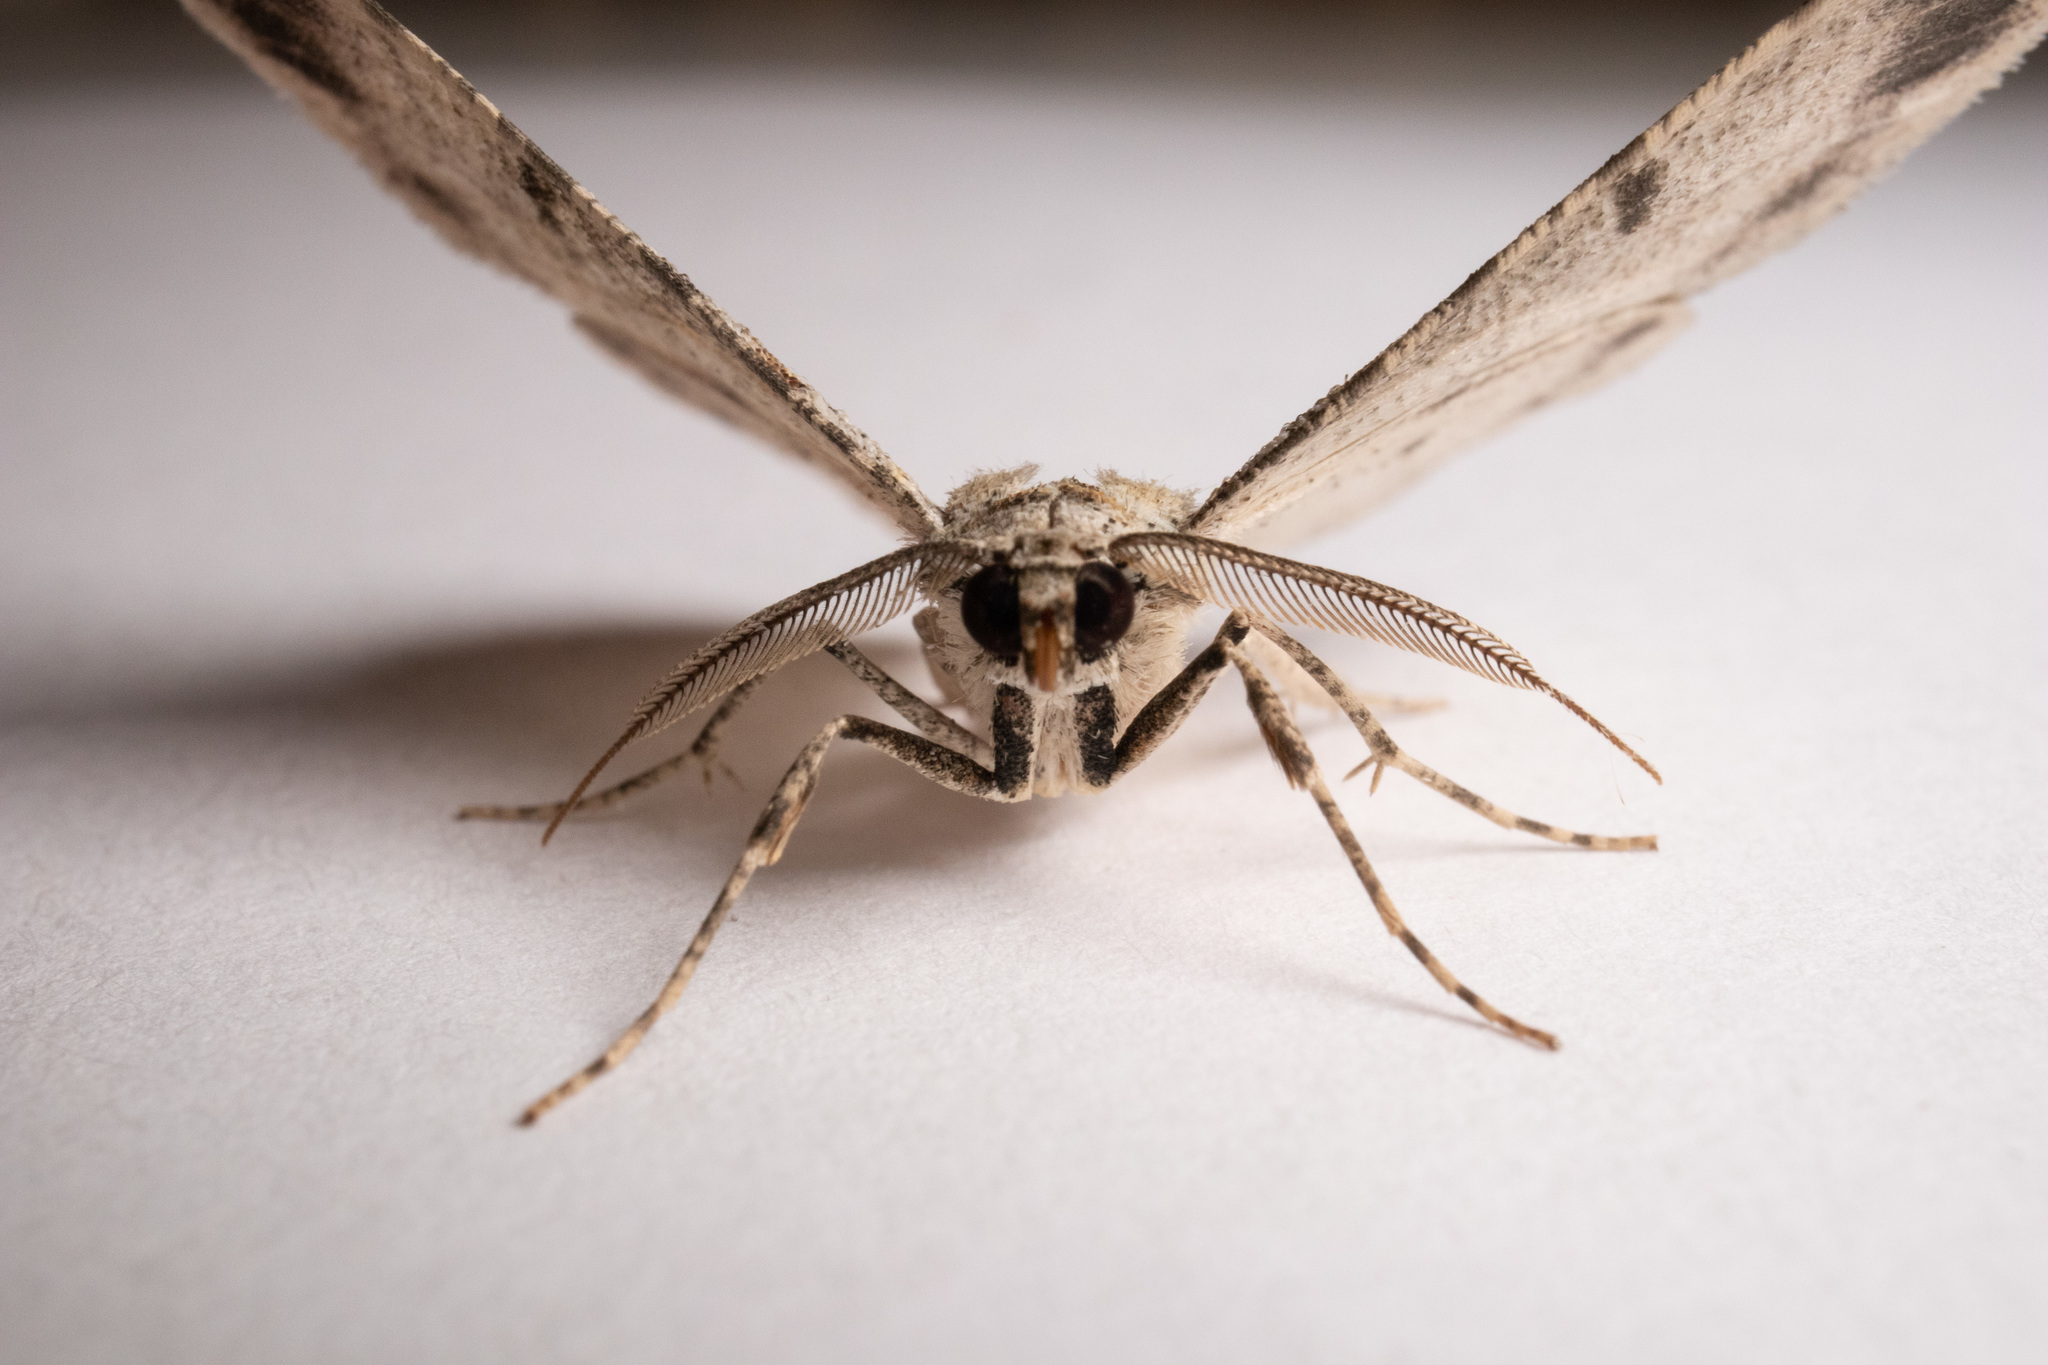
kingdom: Animalia
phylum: Arthropoda
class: Insecta
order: Lepidoptera
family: Geometridae
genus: Iridopsis
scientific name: Iridopsis defectaria
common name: Brown-shaded gray
